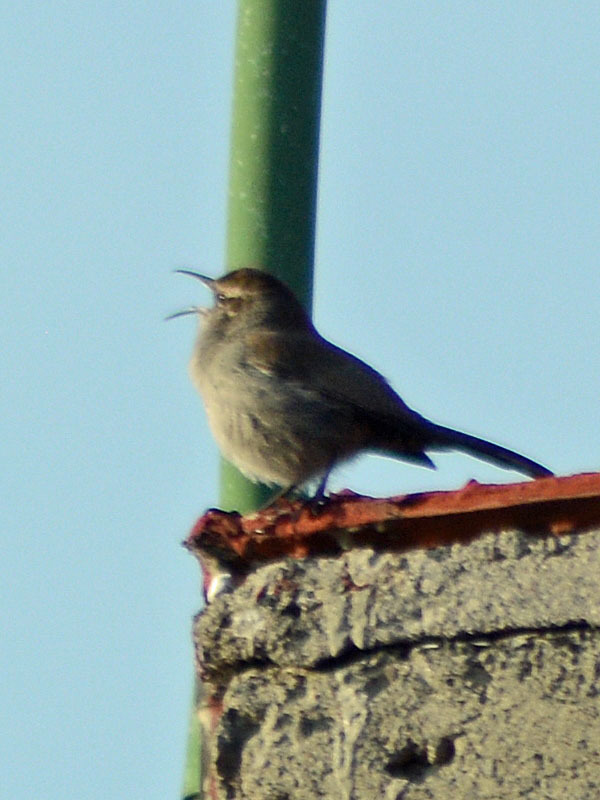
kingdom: Animalia
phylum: Chordata
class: Aves
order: Passeriformes
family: Troglodytidae
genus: Thryomanes
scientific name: Thryomanes bewickii
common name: Bewick's wren
